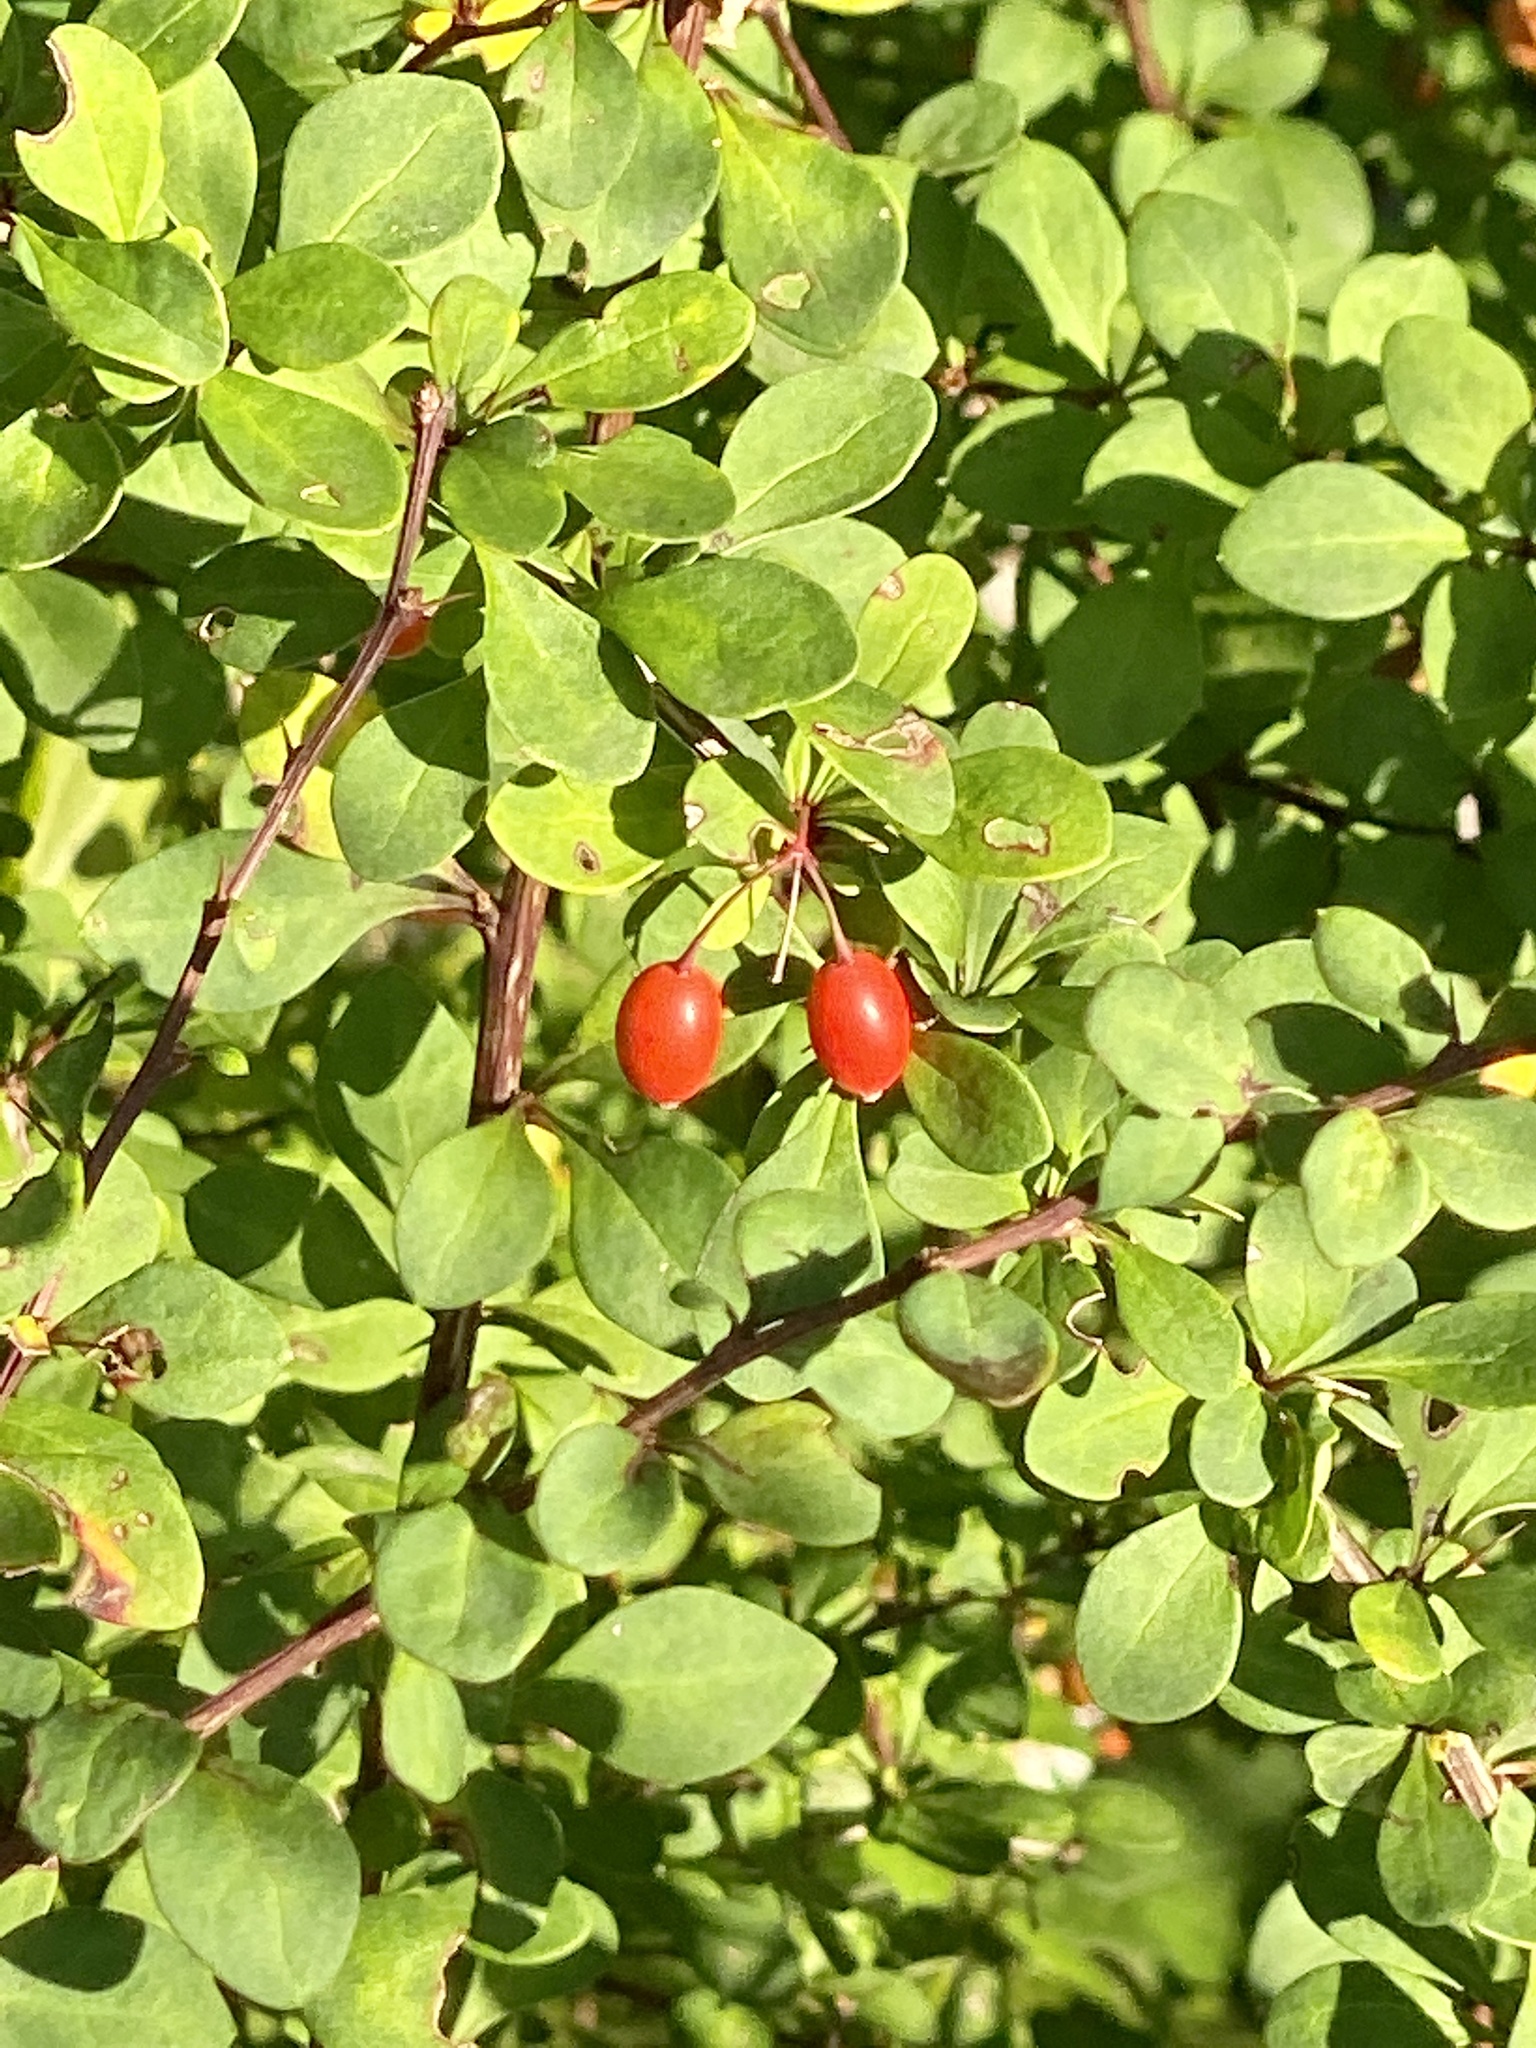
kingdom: Plantae
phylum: Tracheophyta
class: Magnoliopsida
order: Ranunculales
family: Berberidaceae
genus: Berberis
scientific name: Berberis thunbergii
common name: Japanese barberry
